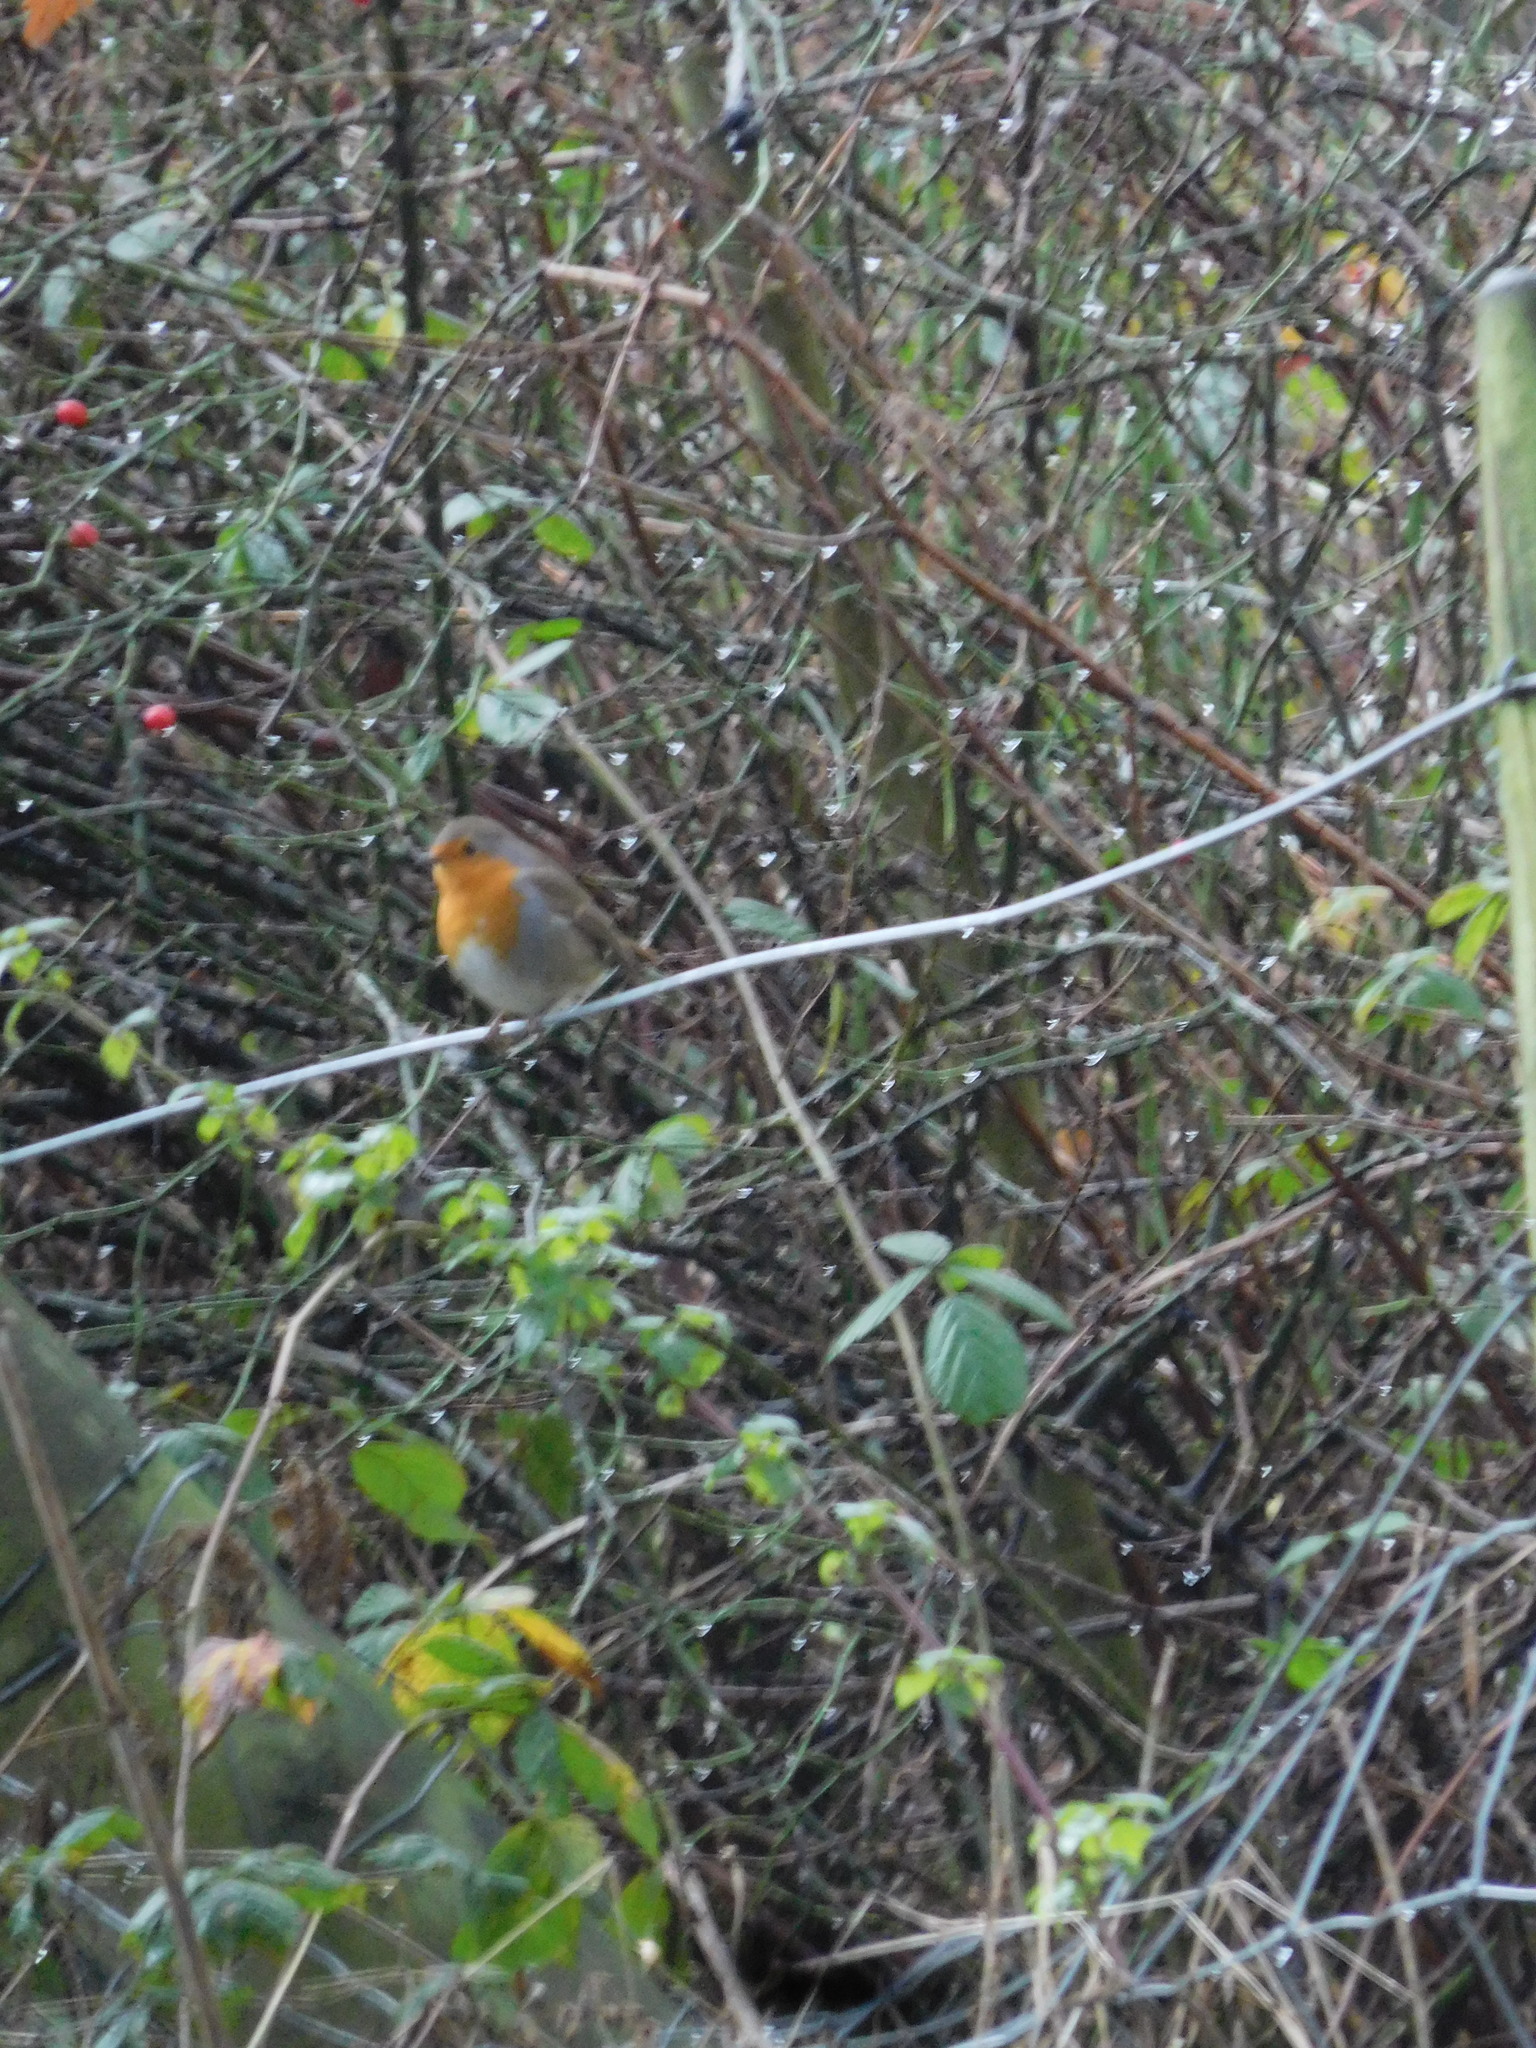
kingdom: Animalia
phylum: Chordata
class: Aves
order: Passeriformes
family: Muscicapidae
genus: Erithacus
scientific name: Erithacus rubecula
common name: European robin
